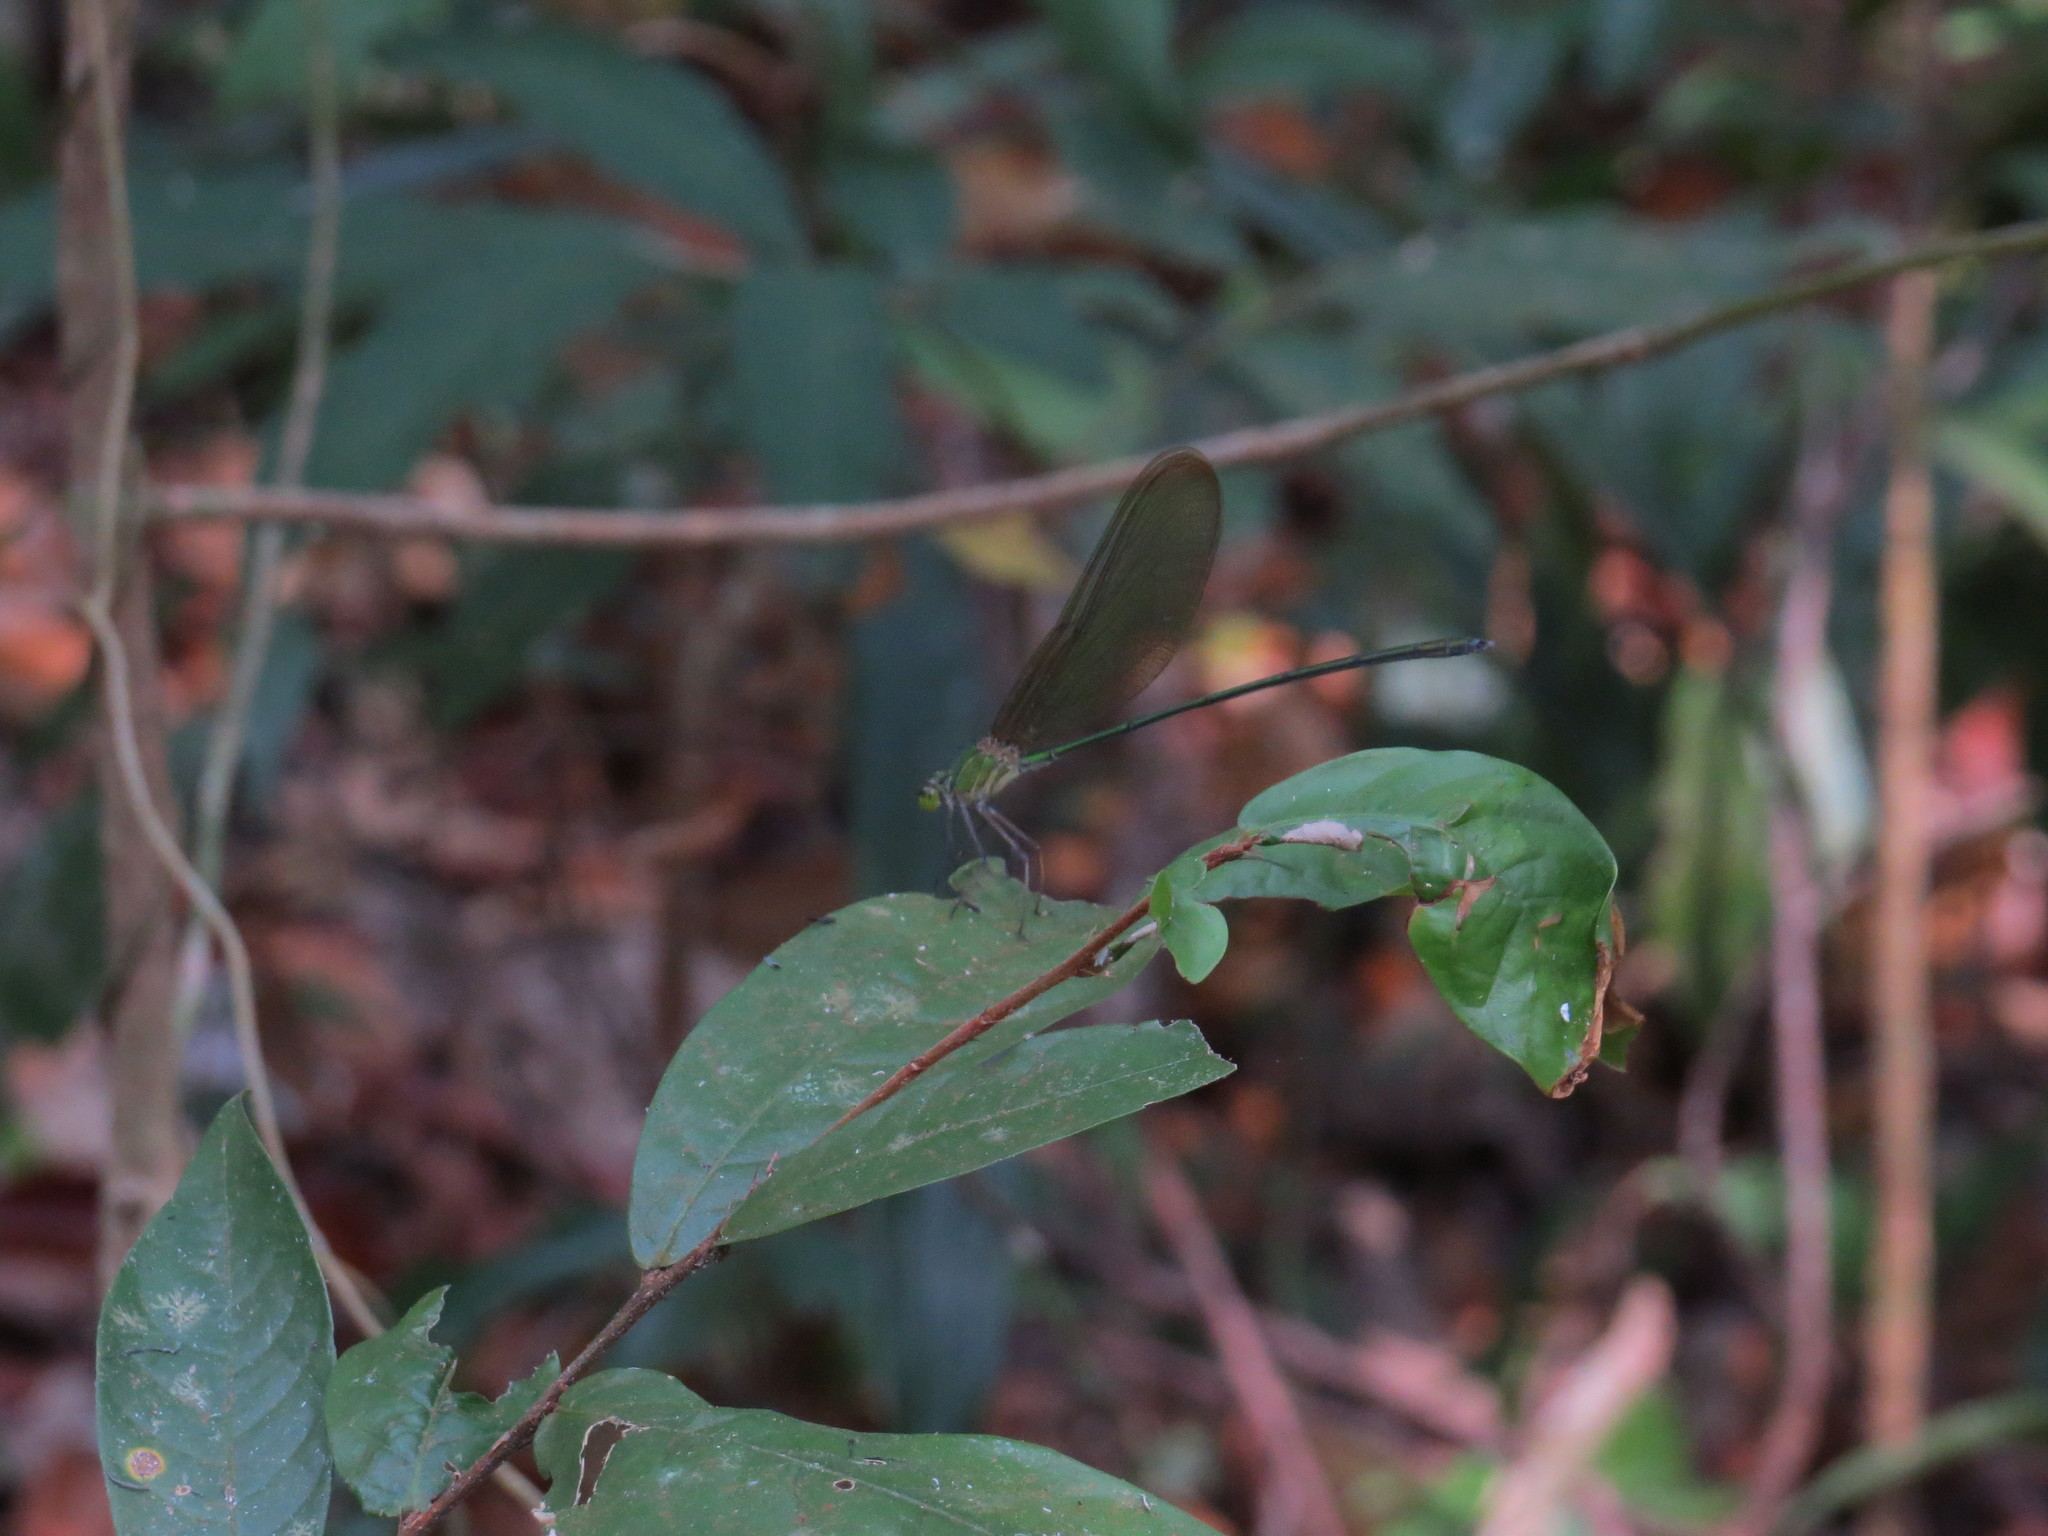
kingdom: Animalia
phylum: Arthropoda
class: Insecta
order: Odonata
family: Calopterygidae
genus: Vestalis
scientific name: Vestalis gracilis
